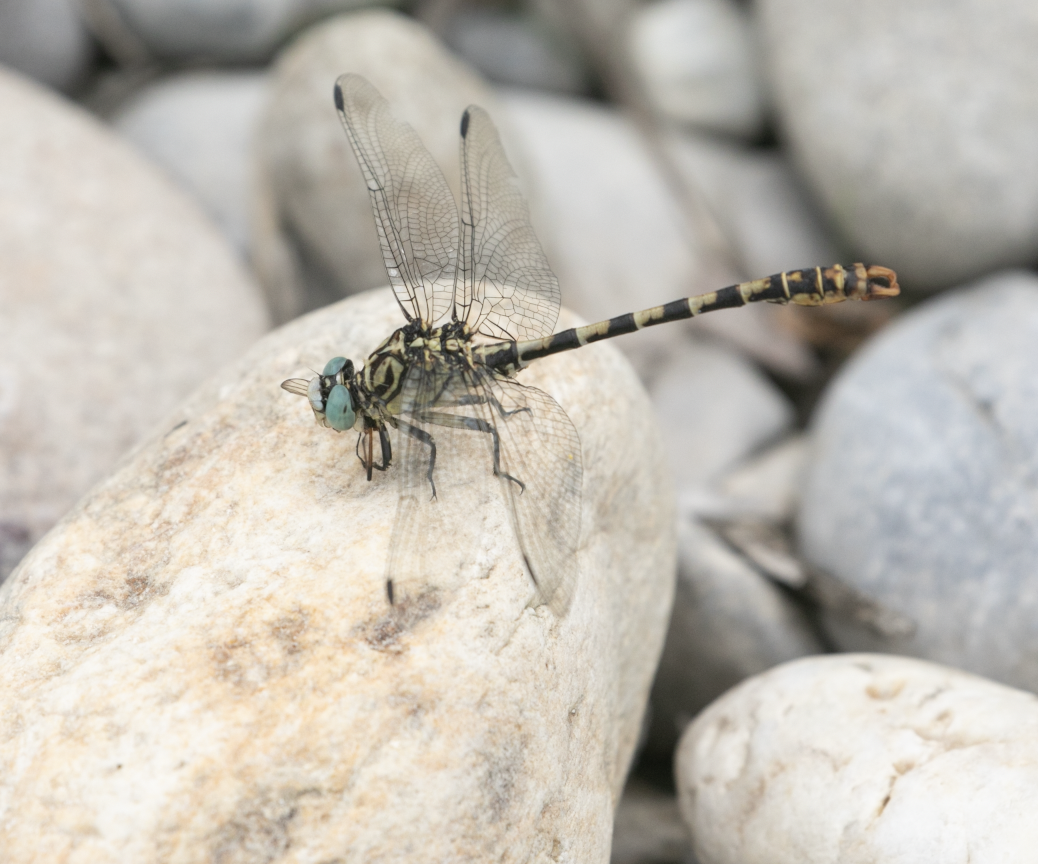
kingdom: Animalia
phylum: Arthropoda
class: Insecta
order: Odonata
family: Gomphidae
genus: Onychogomphus
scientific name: Onychogomphus forcipatus
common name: Small pincertail
